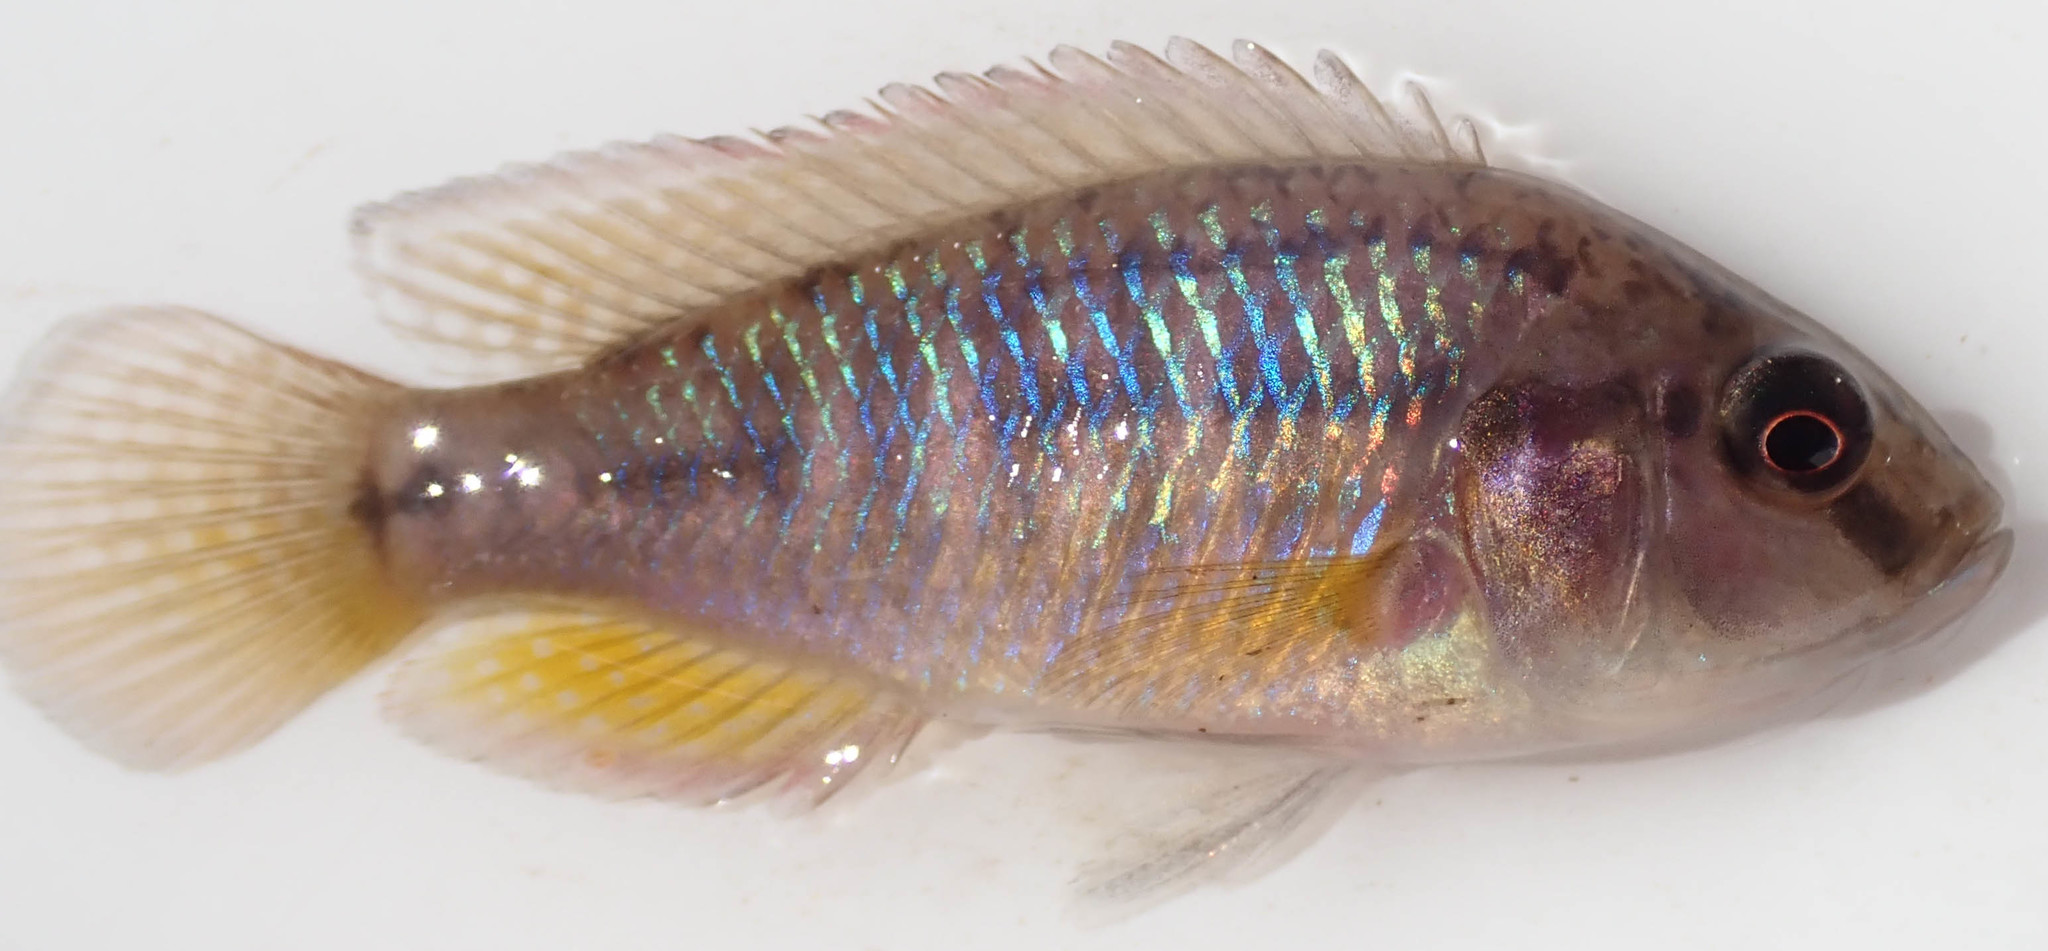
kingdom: Animalia
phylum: Chordata
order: Perciformes
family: Cichlidae
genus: Pseudocrenilabrus
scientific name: Pseudocrenilabrus philander
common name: Southern mouthbrooder
